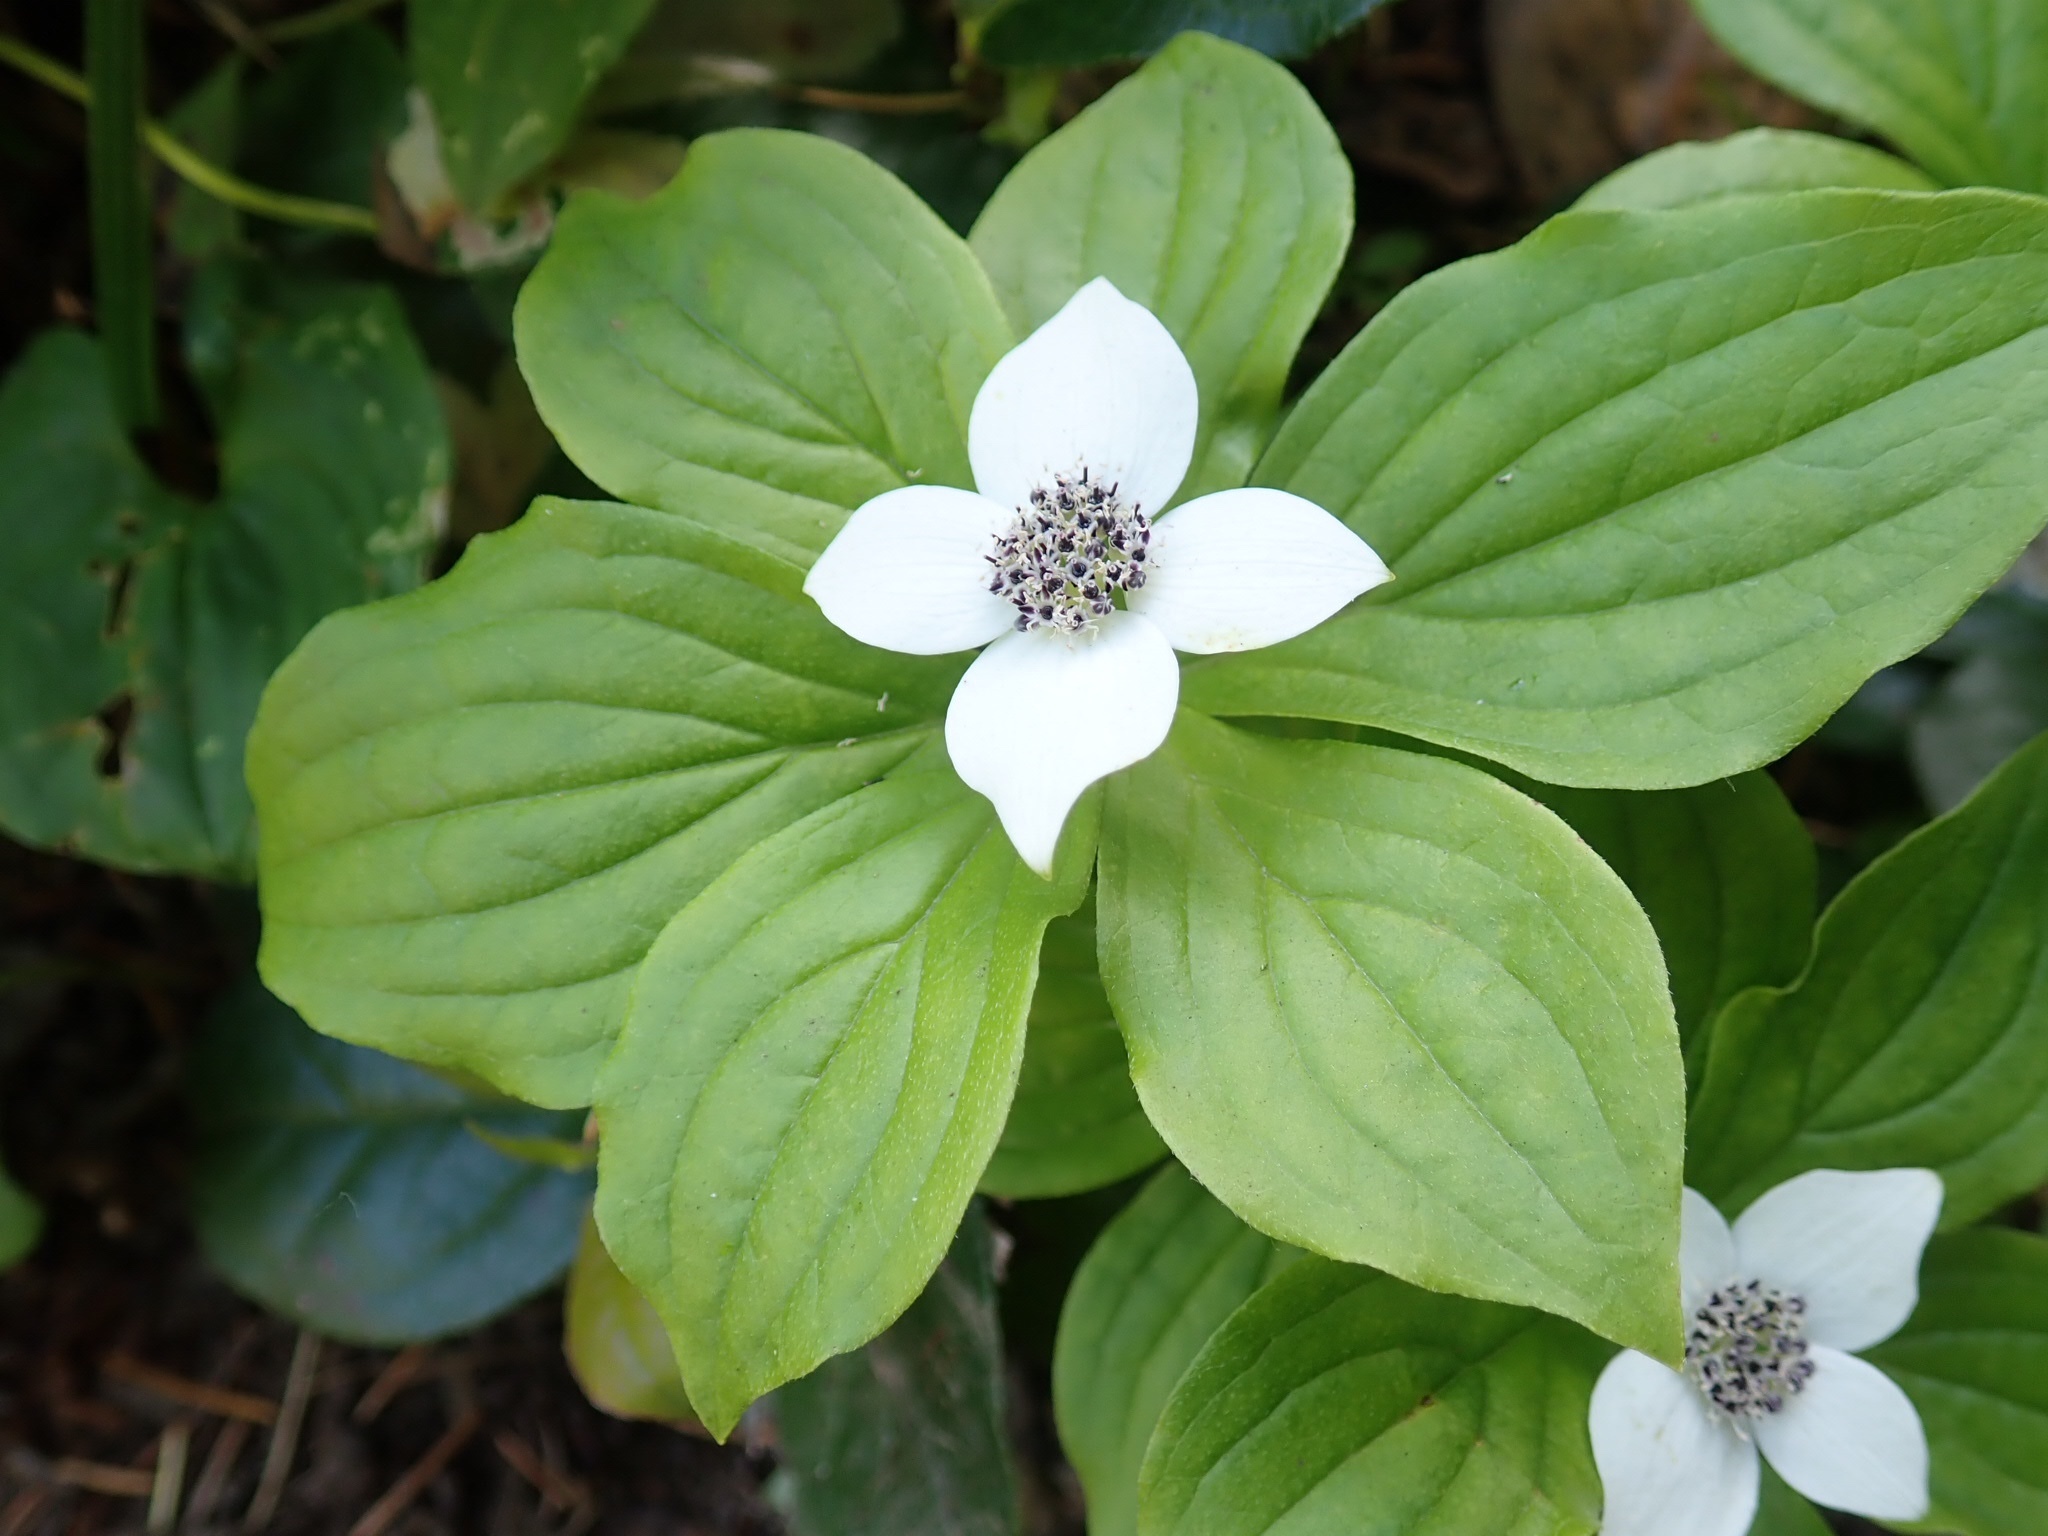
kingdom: Plantae
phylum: Tracheophyta
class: Magnoliopsida
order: Cornales
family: Cornaceae
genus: Cornus
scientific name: Cornus unalaschkensis
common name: Alaska bunchberry
